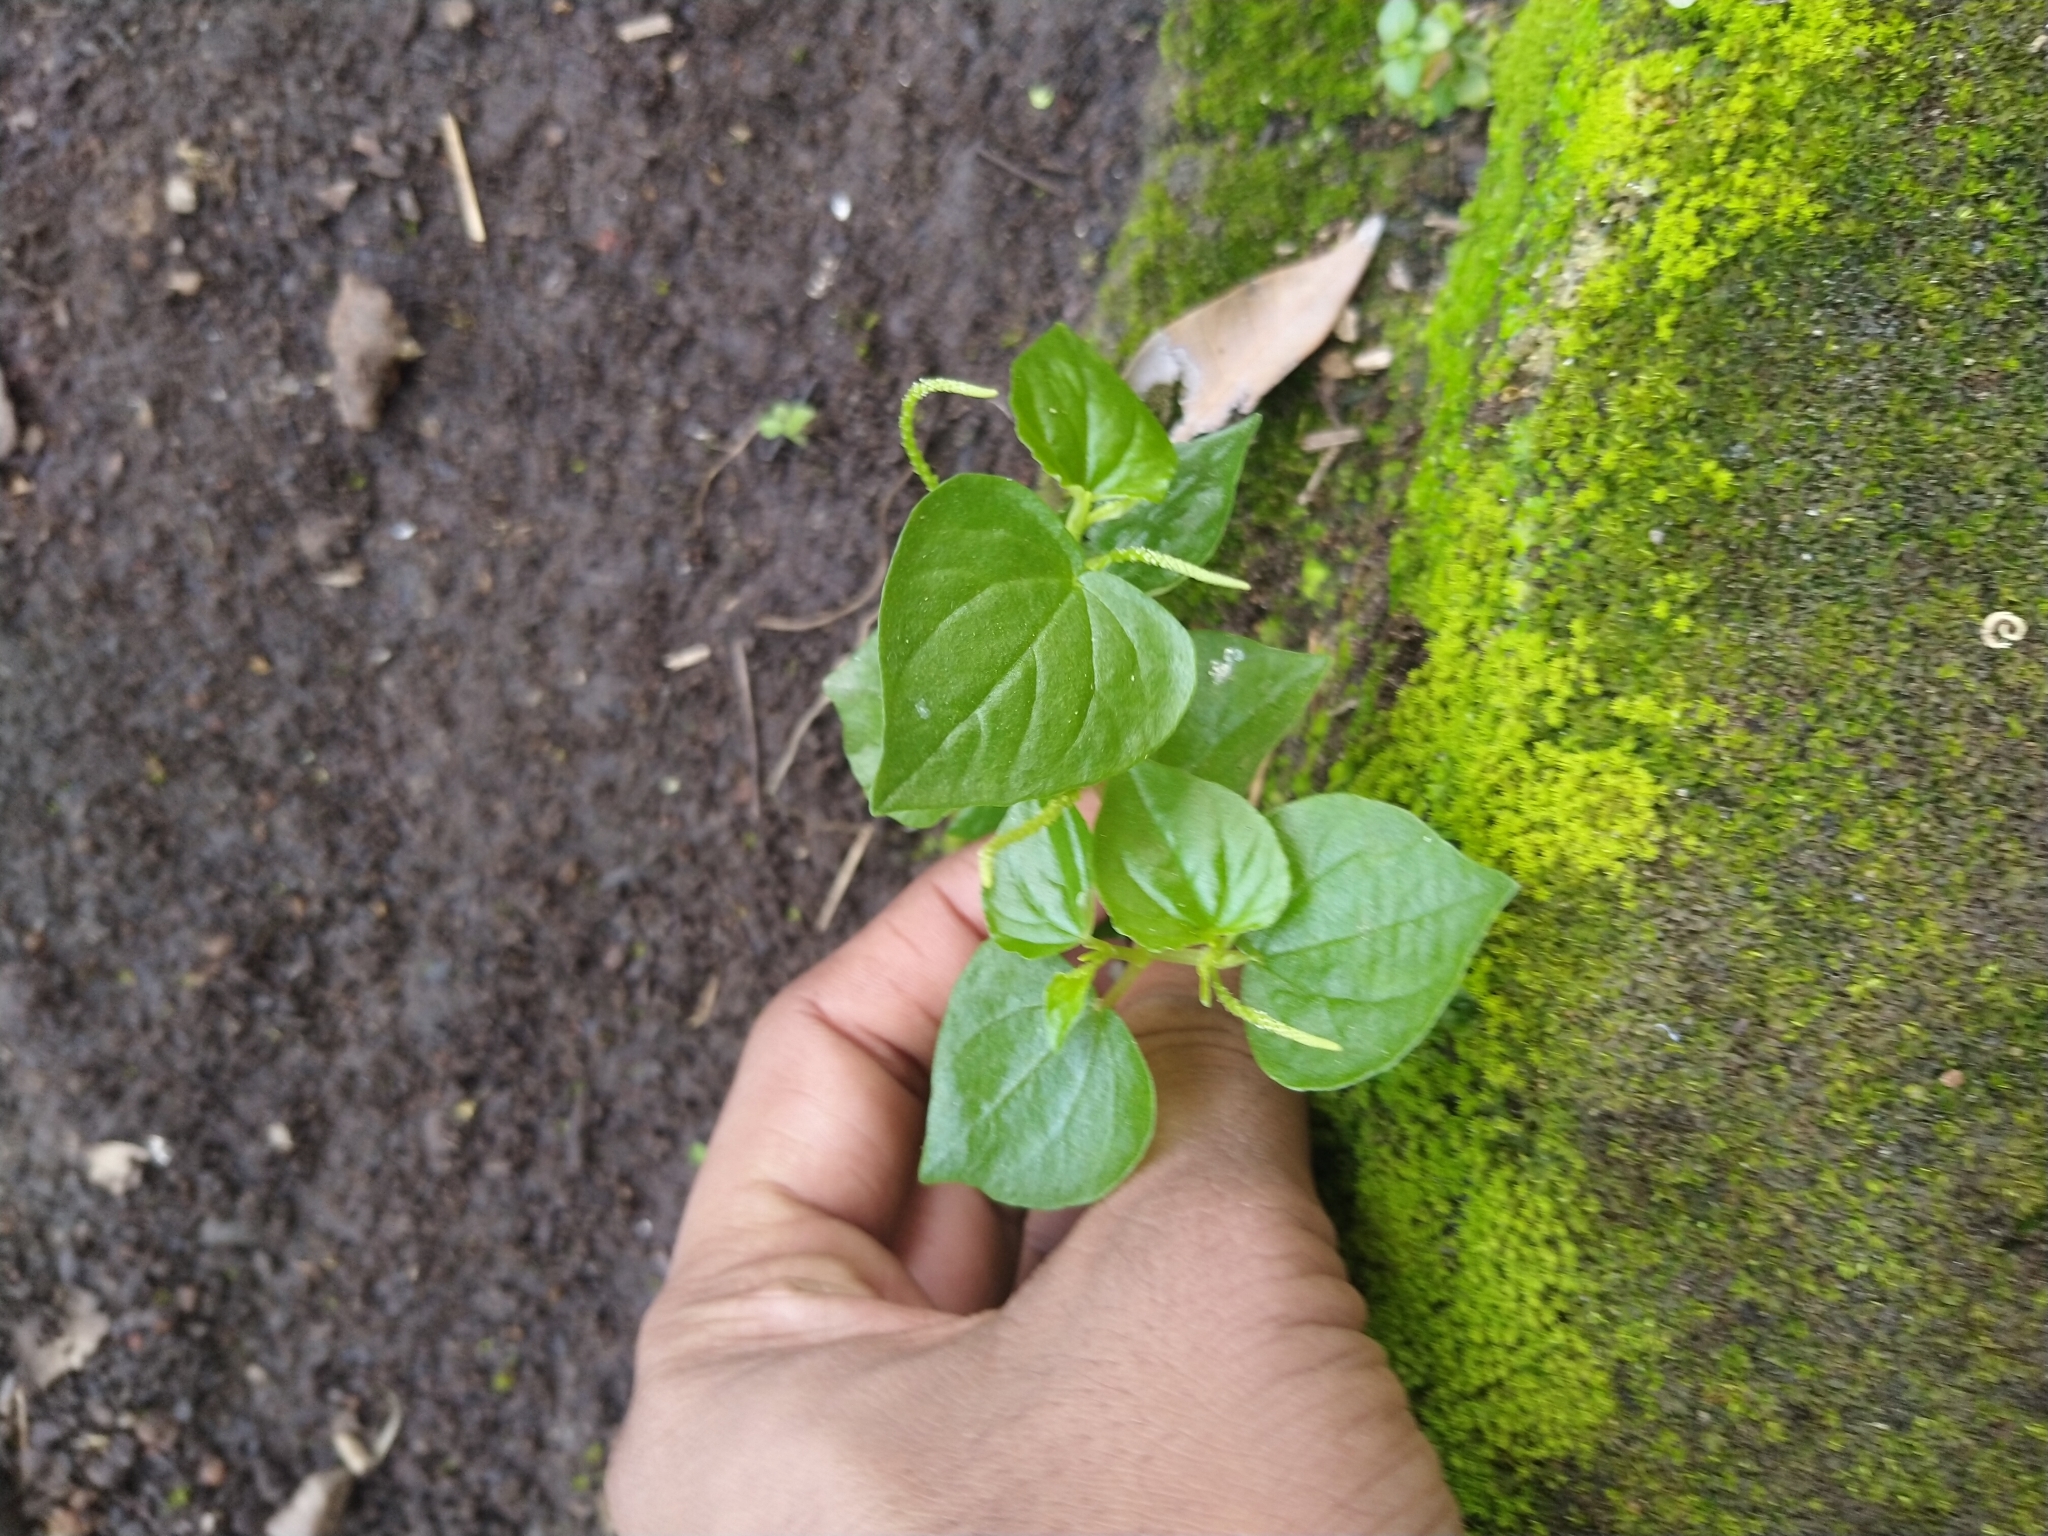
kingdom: Plantae
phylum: Tracheophyta
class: Magnoliopsida
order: Piperales
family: Piperaceae
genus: Peperomia
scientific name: Peperomia pellucida
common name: Man to man
